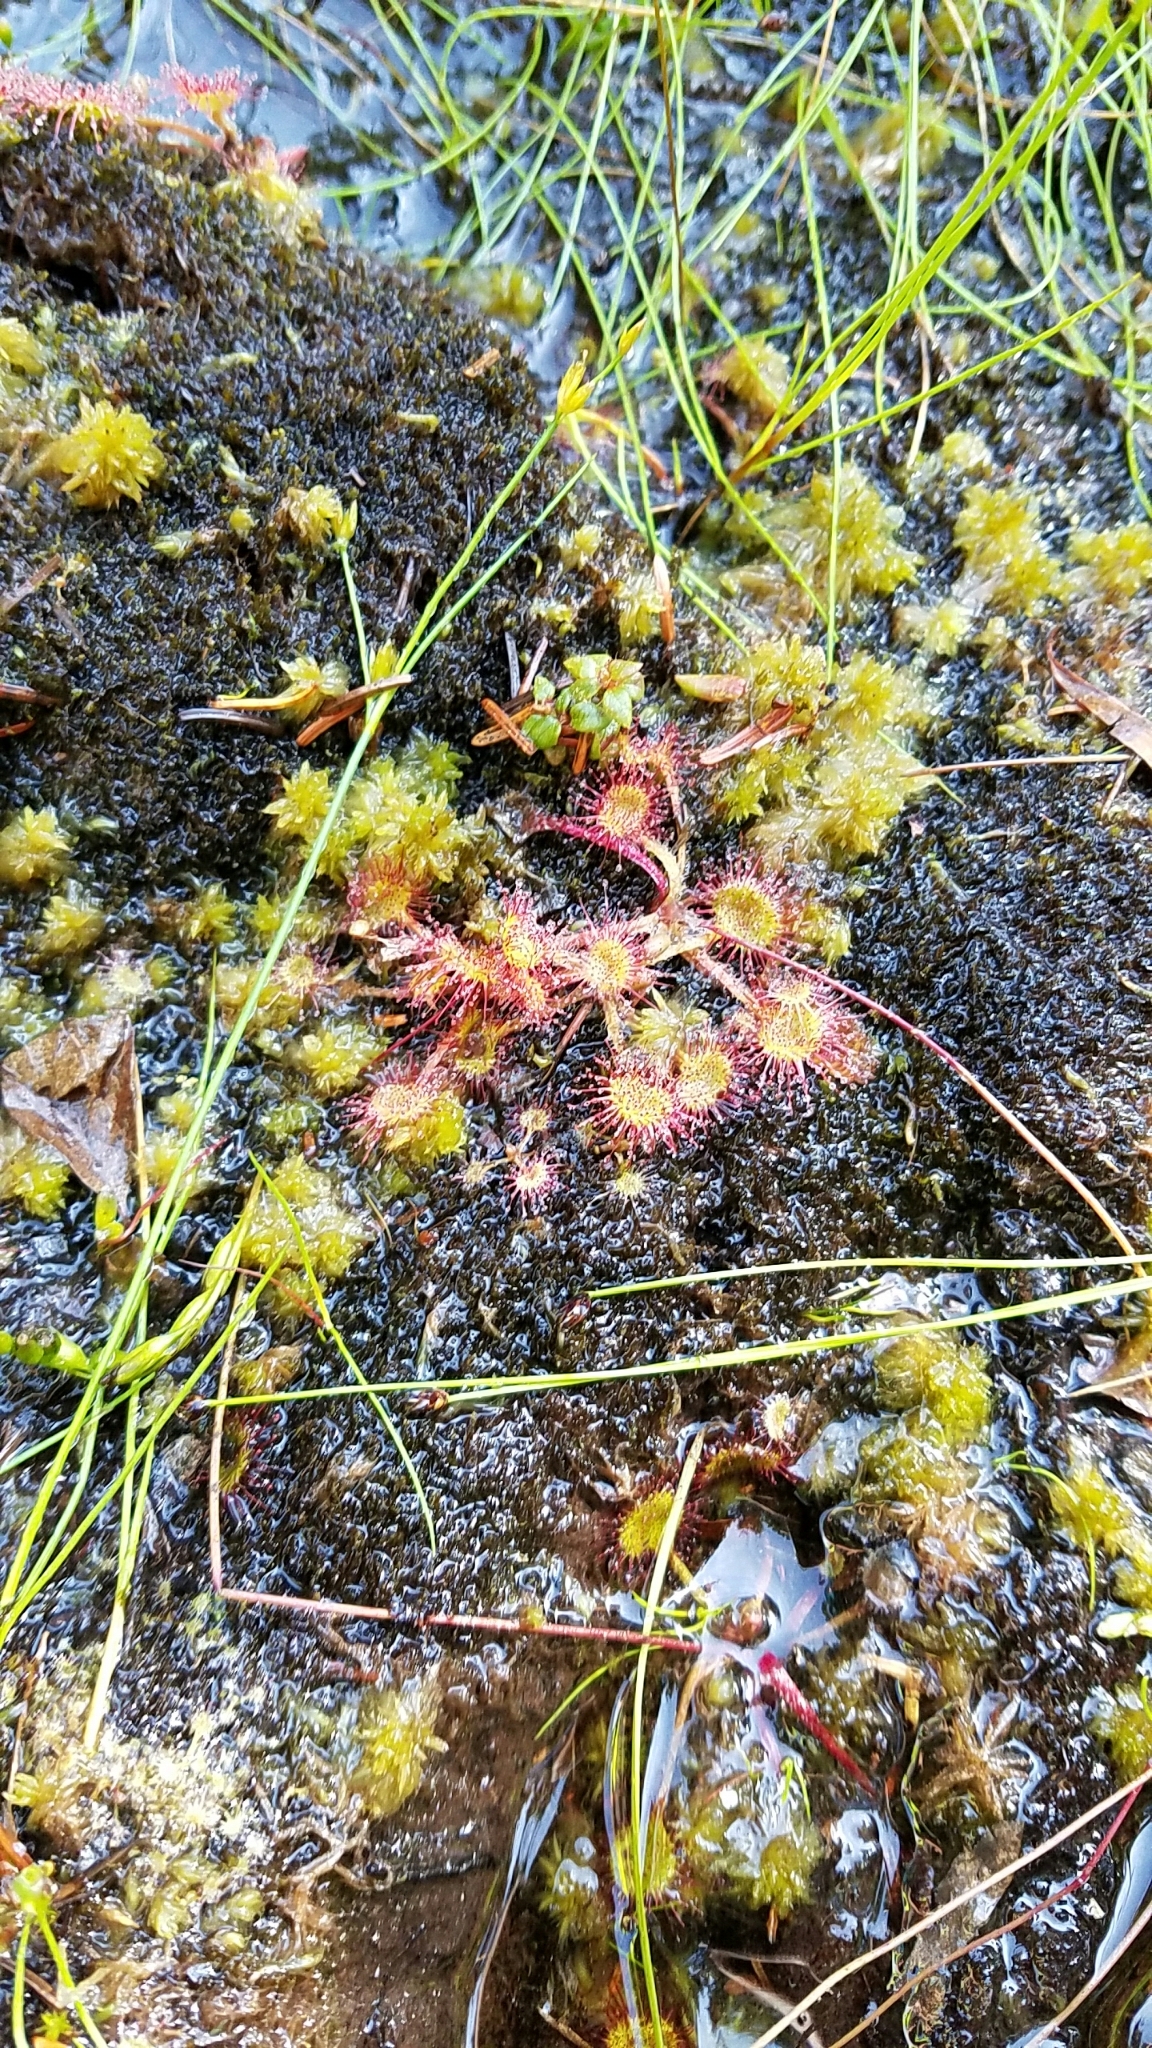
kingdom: Plantae
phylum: Tracheophyta
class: Magnoliopsida
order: Caryophyllales
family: Droseraceae
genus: Drosera
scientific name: Drosera rotundifolia
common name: Round-leaved sundew
